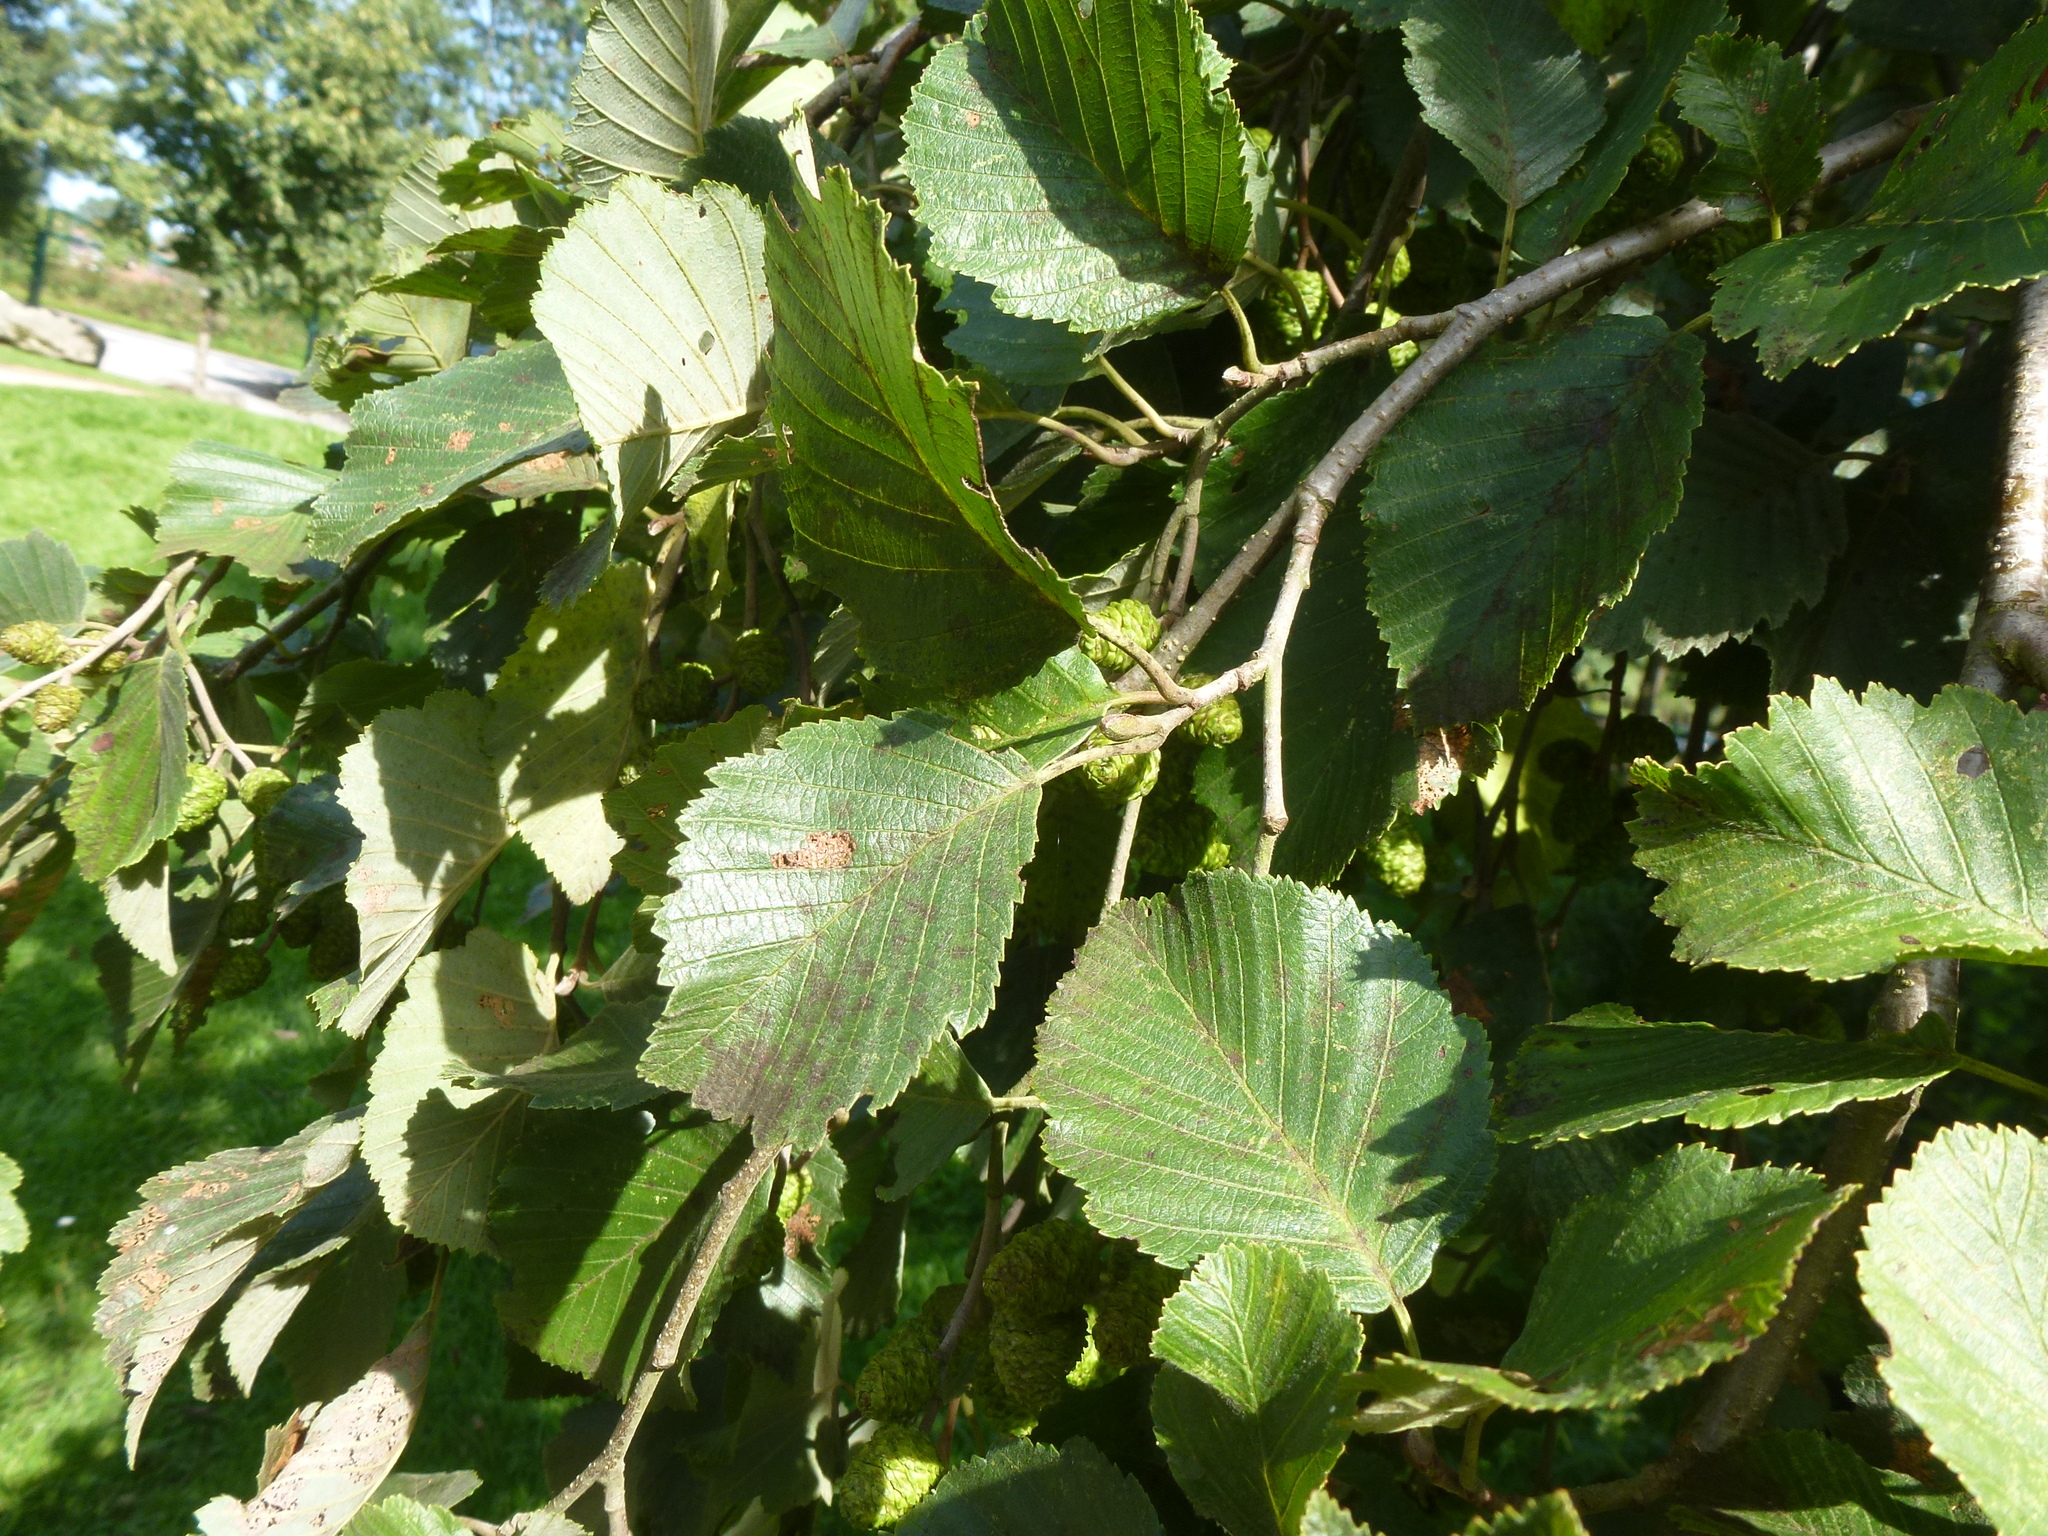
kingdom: Plantae
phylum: Tracheophyta
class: Magnoliopsida
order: Fagales
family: Betulaceae
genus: Alnus
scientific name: Alnus incana
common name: Grey alder
